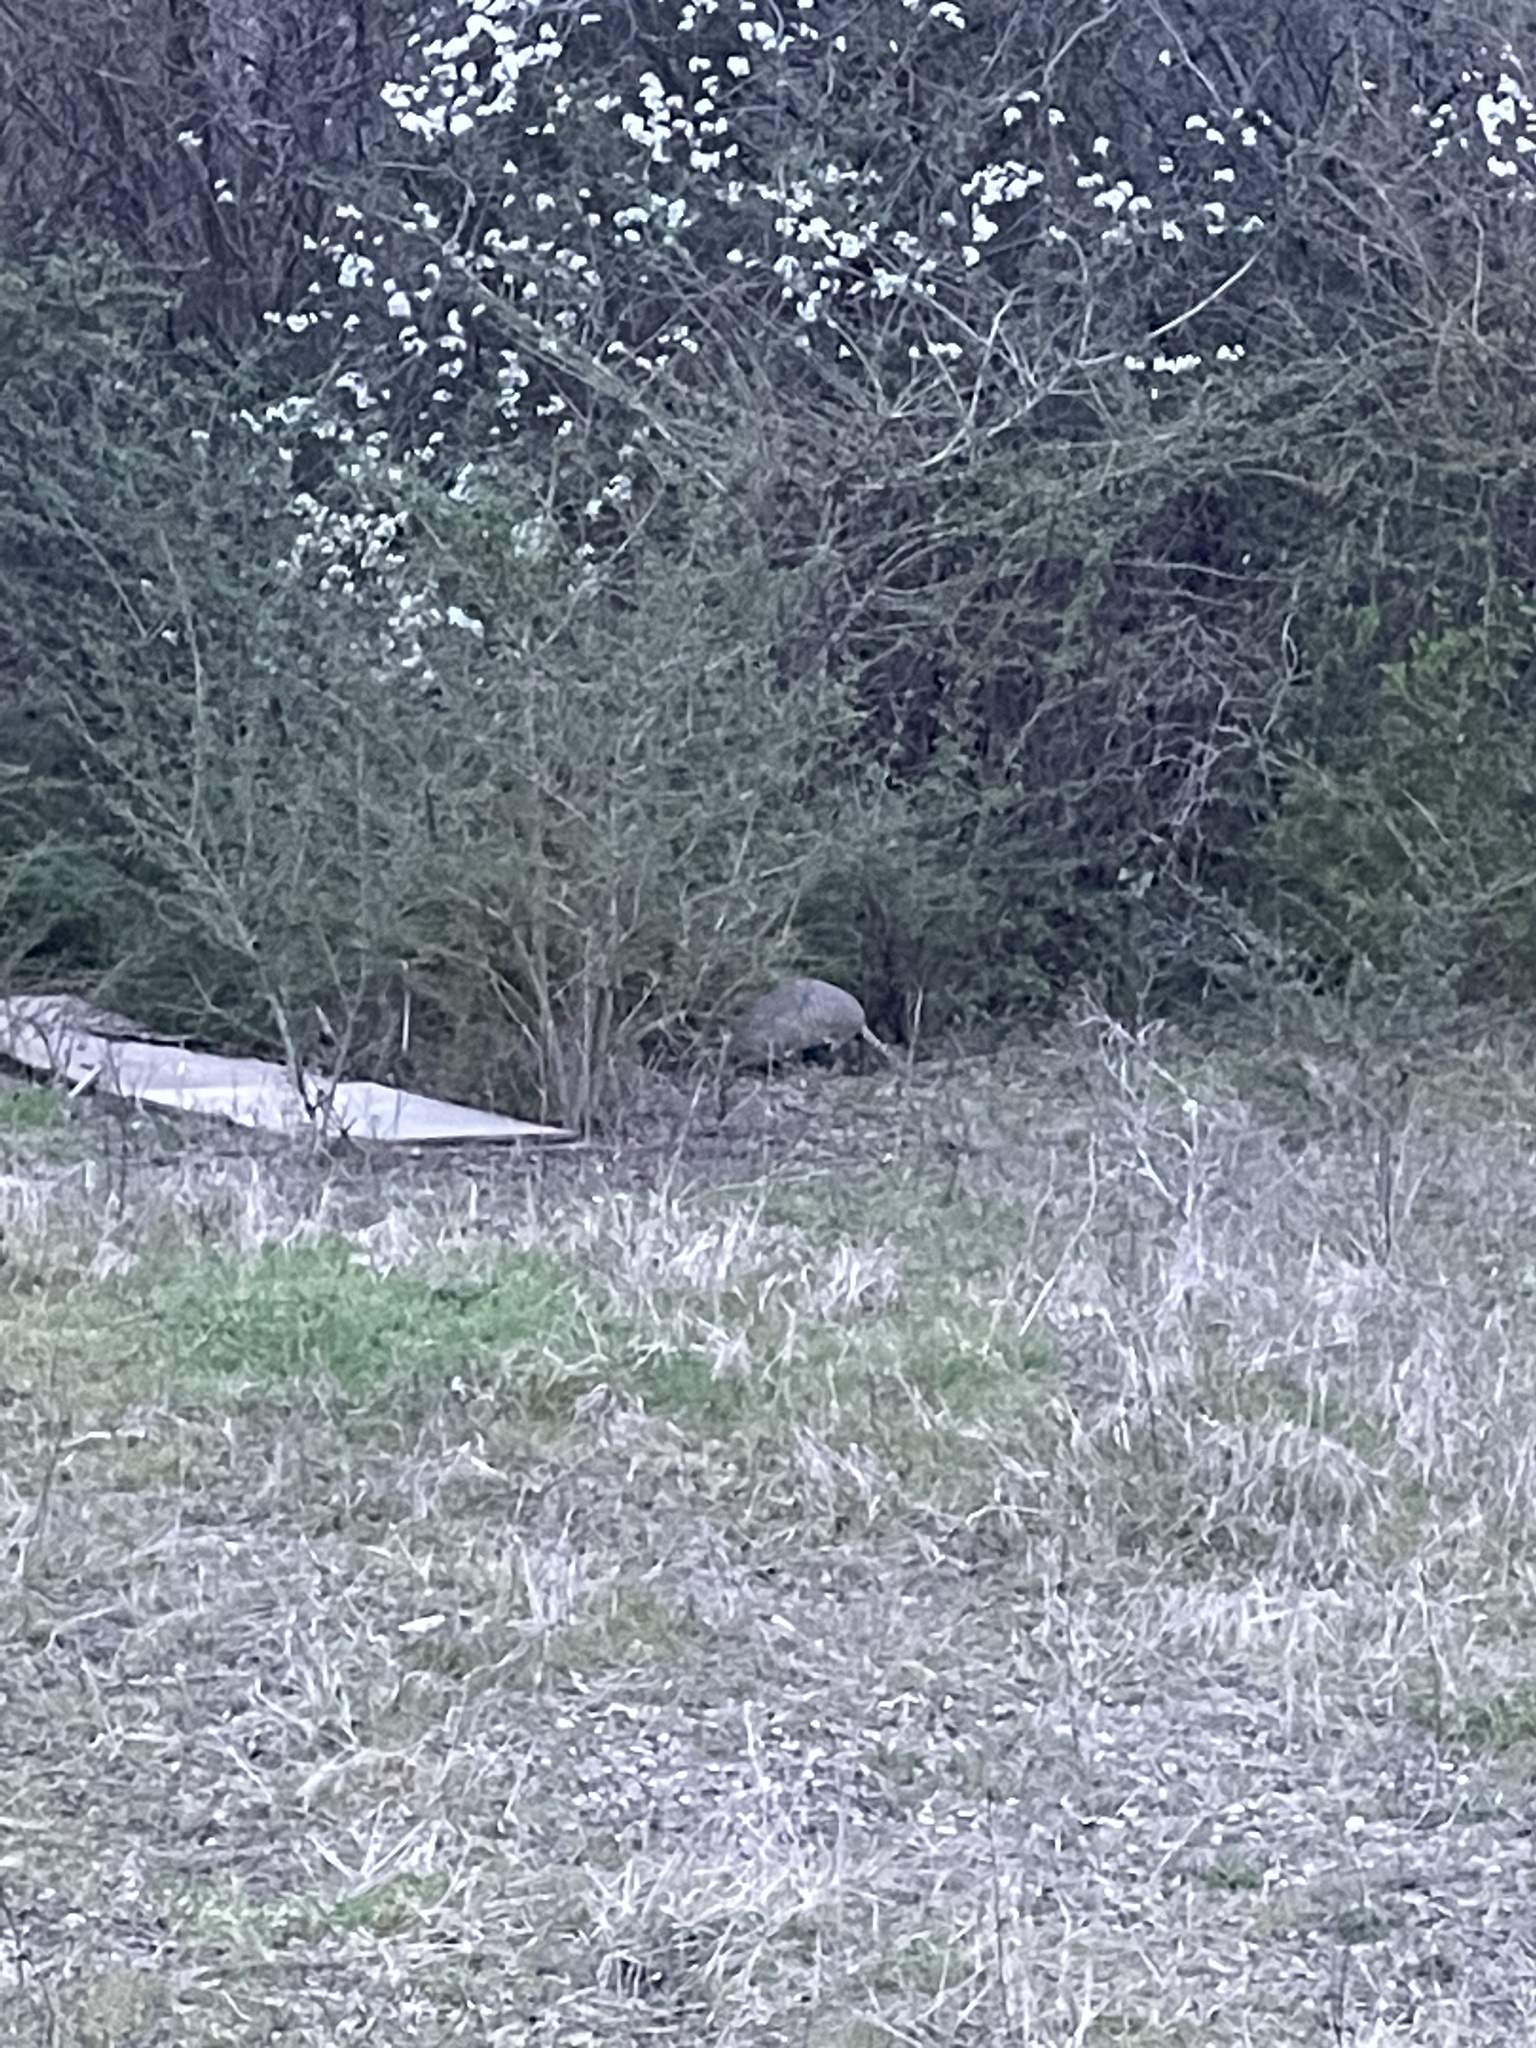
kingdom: Animalia
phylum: Chordata
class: Mammalia
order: Cingulata
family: Dasypodidae
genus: Dasypus
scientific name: Dasypus novemcinctus
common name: Nine-banded armadillo
